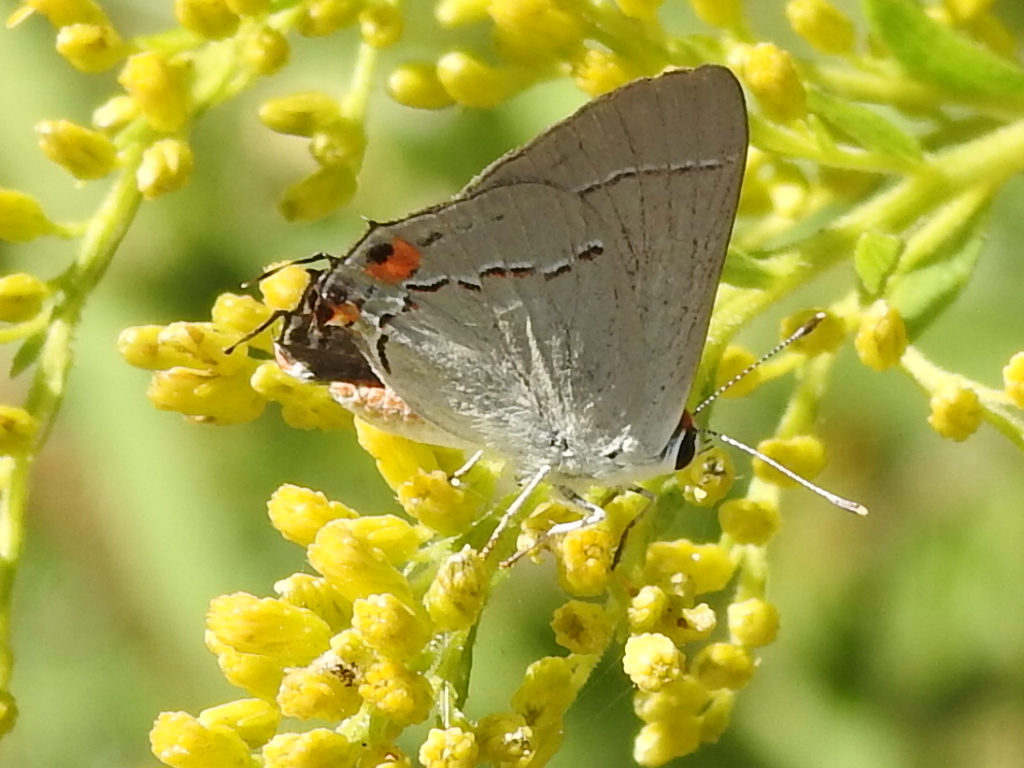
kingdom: Animalia
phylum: Arthropoda
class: Insecta
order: Lepidoptera
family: Lycaenidae
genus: Strymon
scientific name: Strymon melinus
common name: Gray hairstreak
